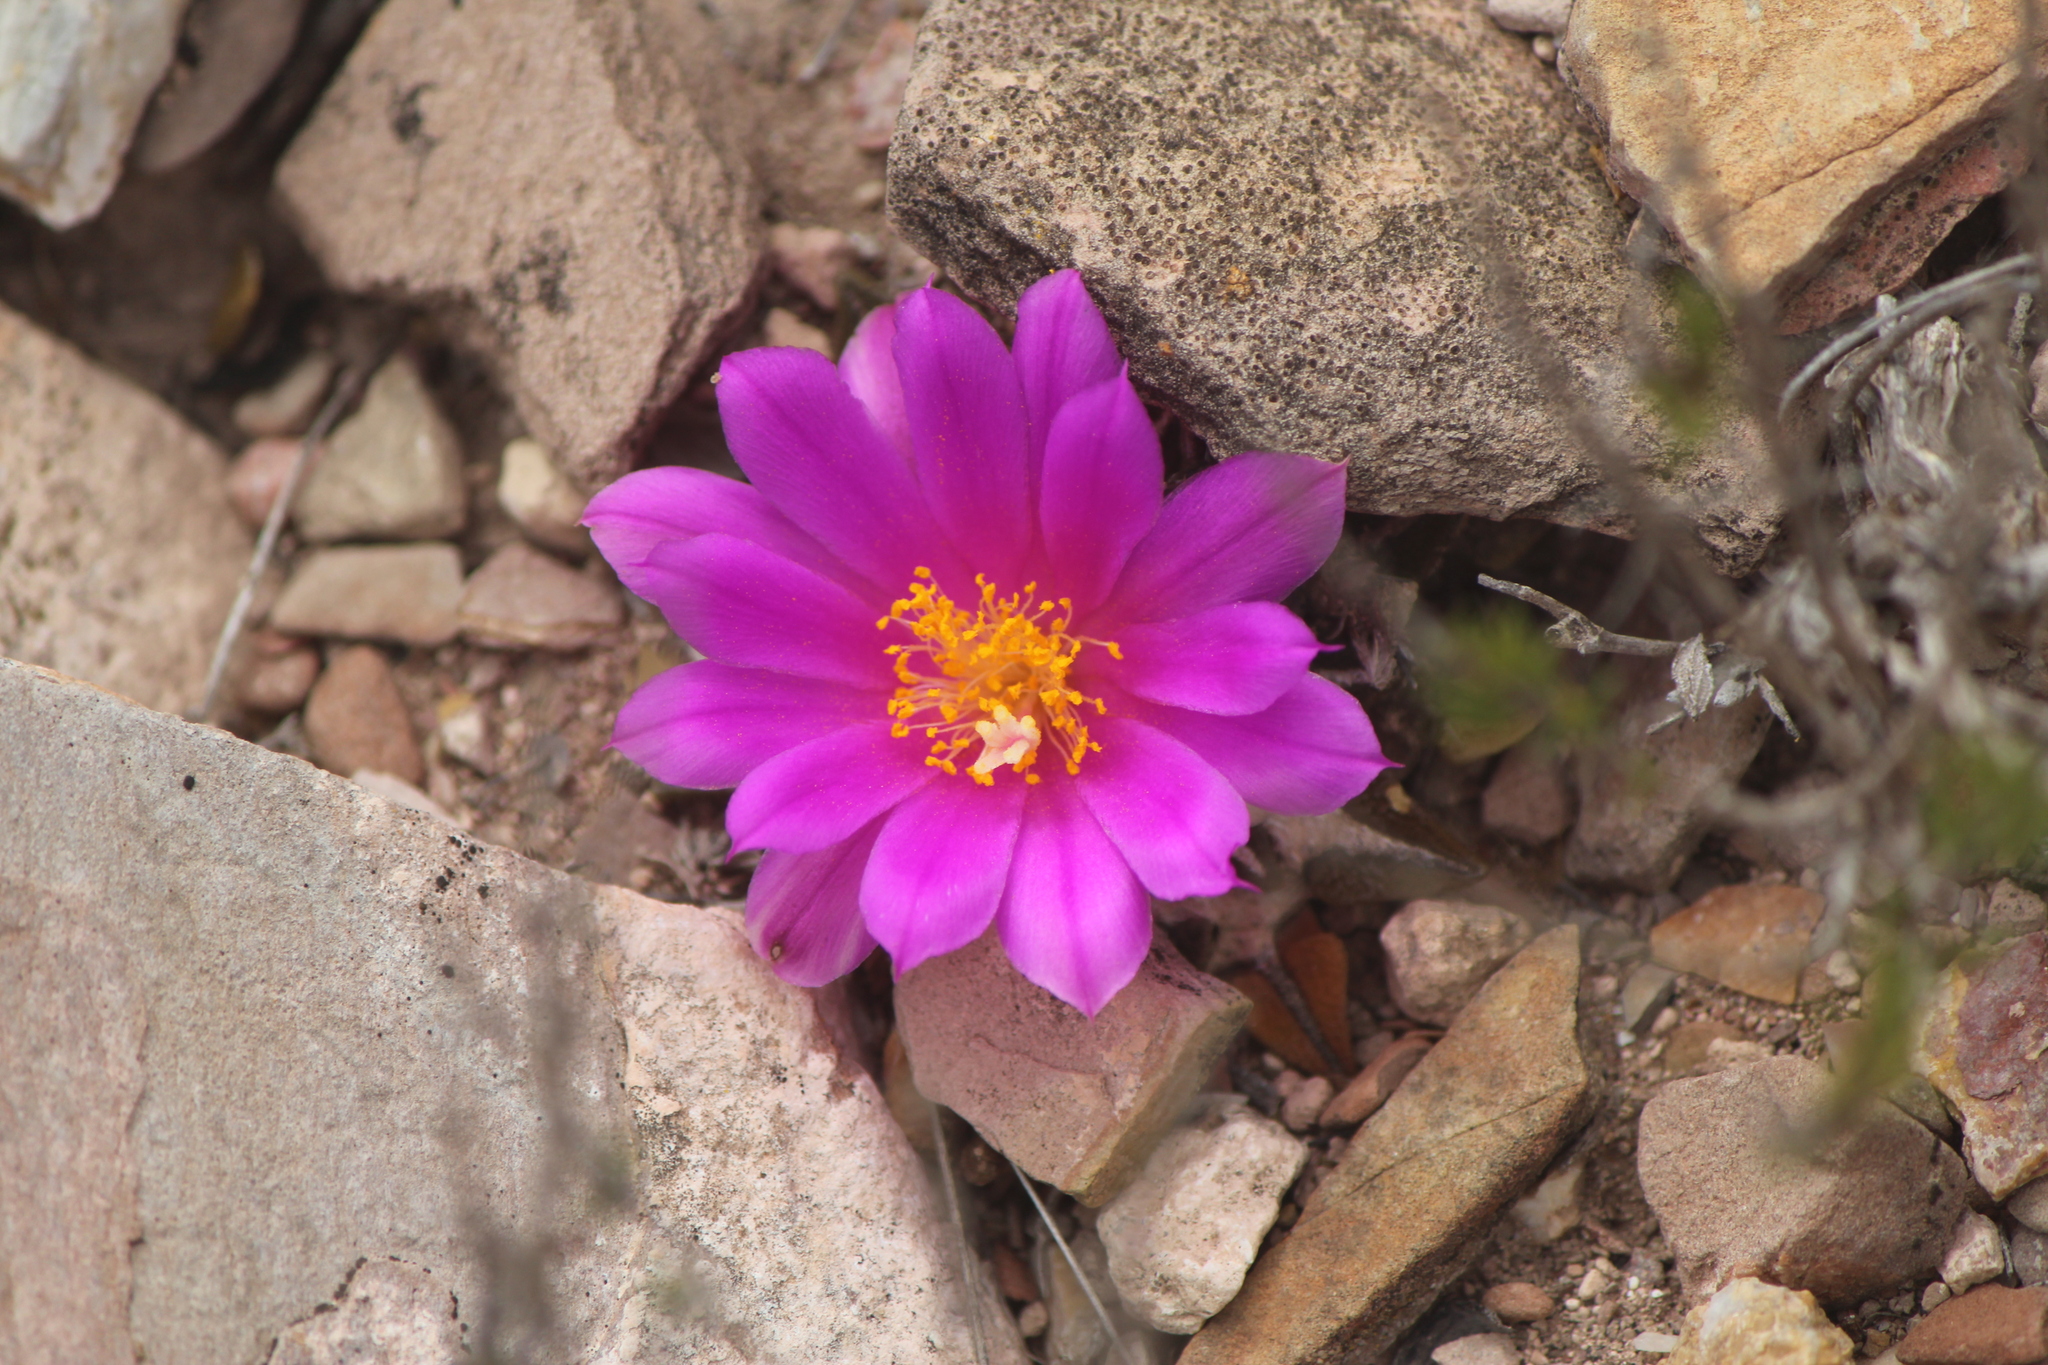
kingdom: Plantae
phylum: Tracheophyta
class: Magnoliopsida
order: Caryophyllales
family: Cactaceae
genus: Ariocarpus
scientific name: Ariocarpus kotschoubeyanus
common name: Living-rock
